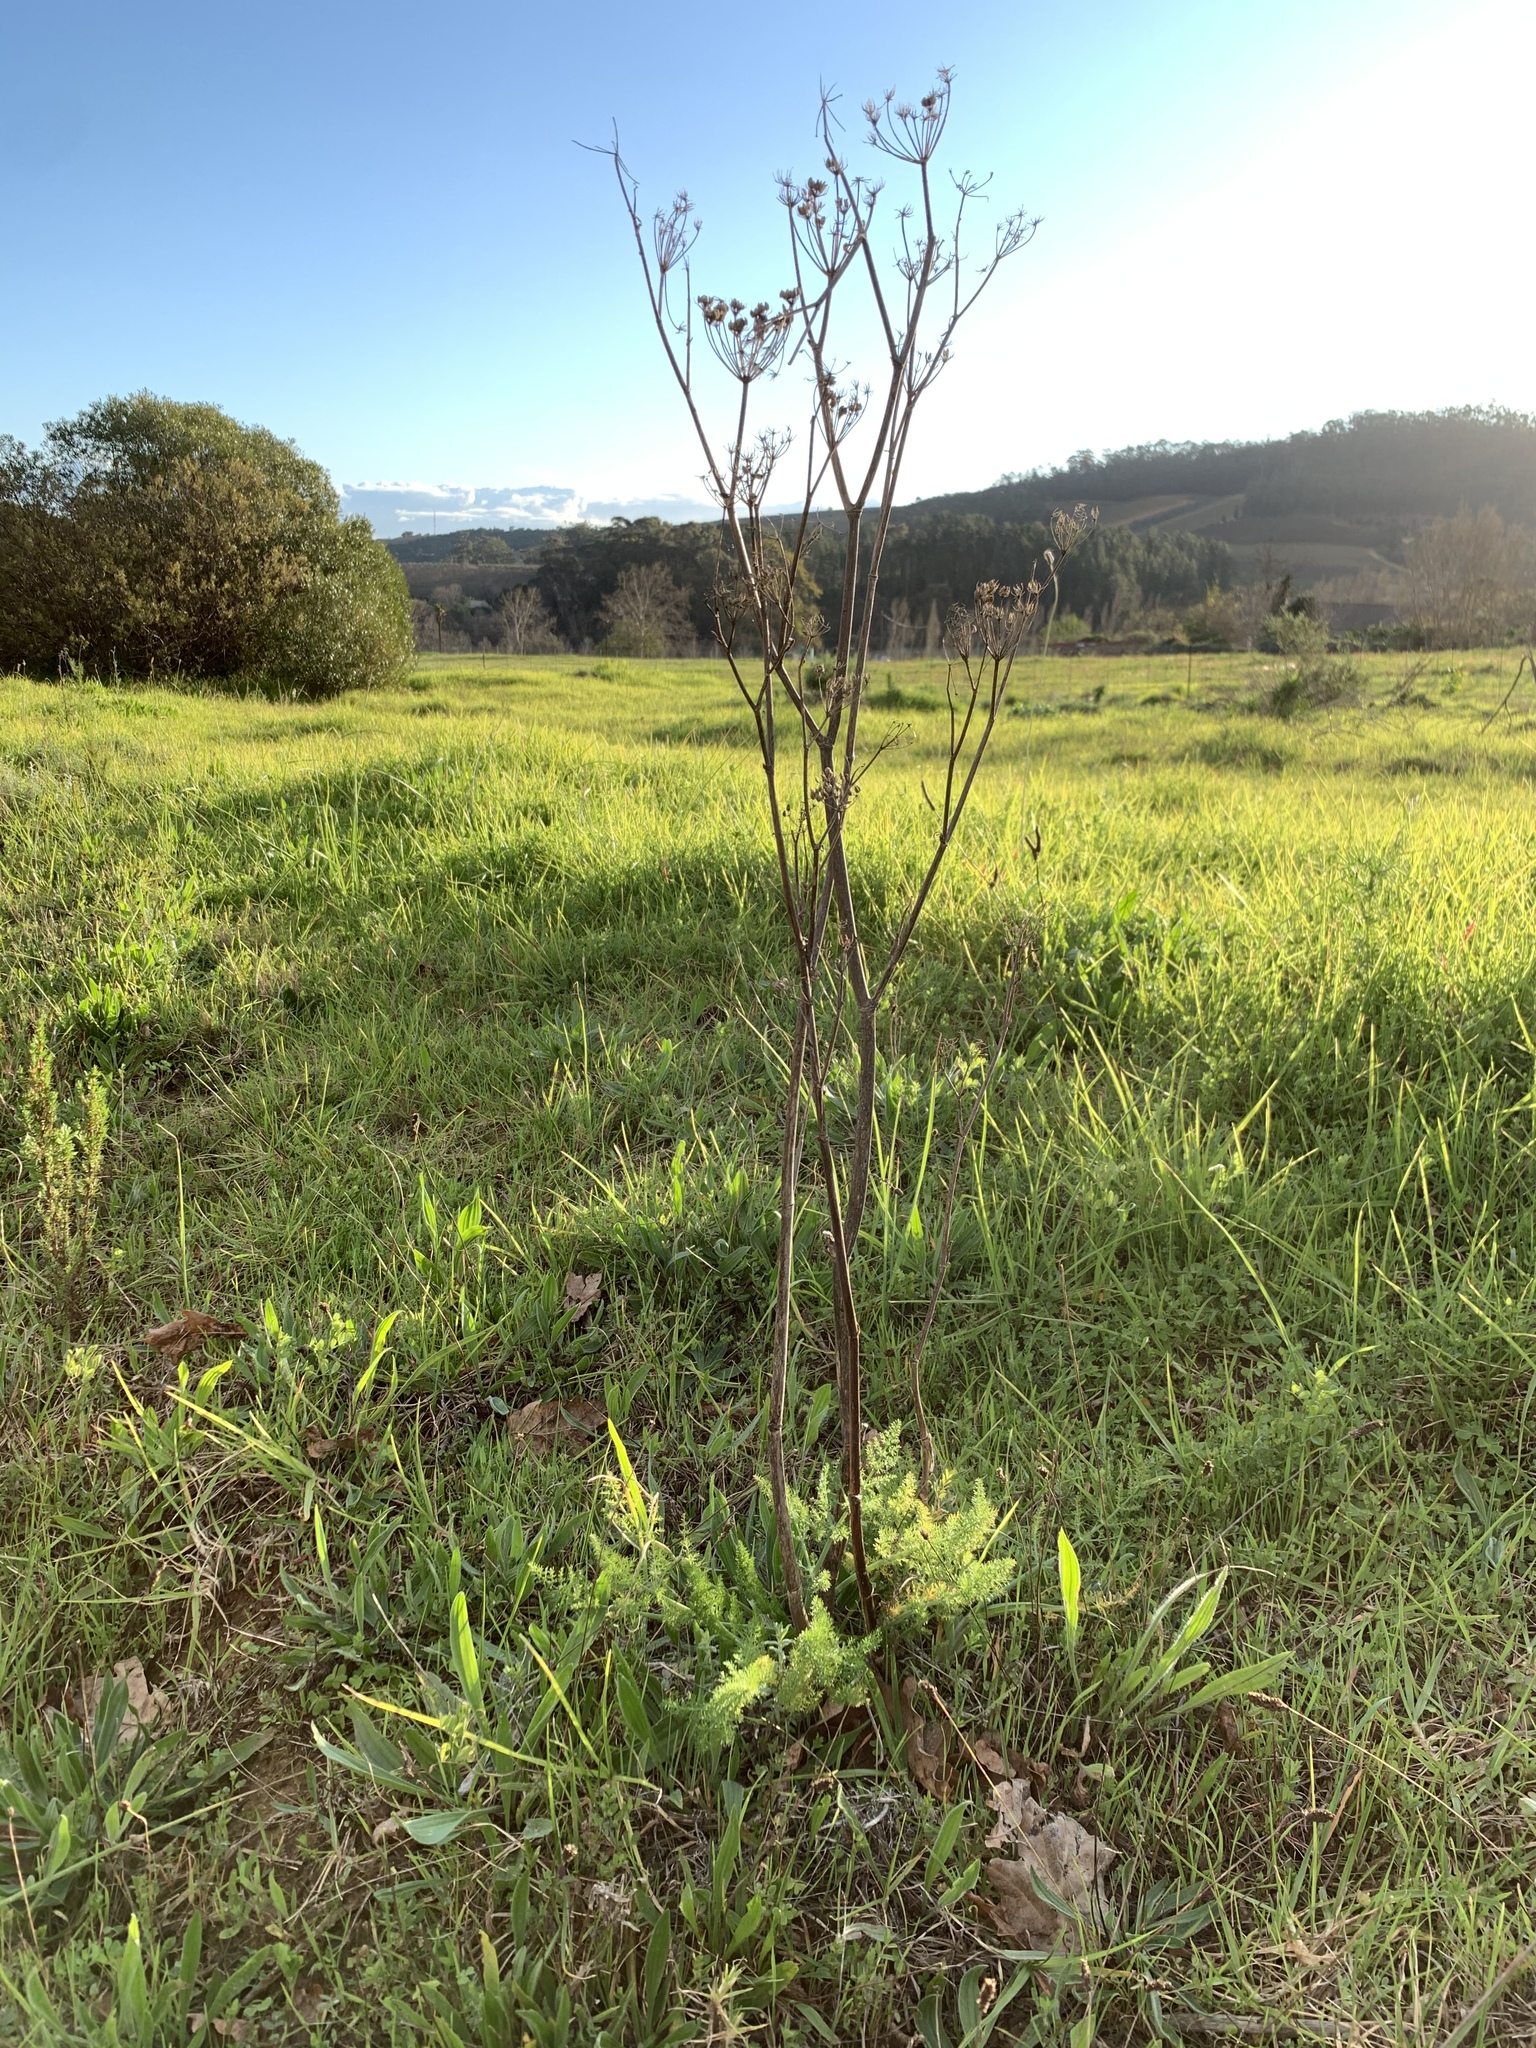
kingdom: Plantae
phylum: Tracheophyta
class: Magnoliopsida
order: Apiales
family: Apiaceae
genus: Foeniculum
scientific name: Foeniculum vulgare
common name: Fennel
